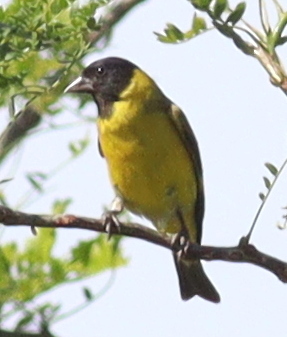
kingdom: Animalia
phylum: Chordata
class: Aves
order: Passeriformes
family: Fringillidae
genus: Spinus
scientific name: Spinus magellanicus
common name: Hooded siskin
